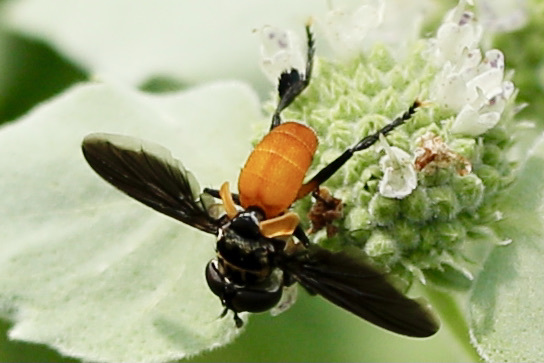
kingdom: Animalia
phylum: Arthropoda
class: Insecta
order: Diptera
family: Tachinidae
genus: Trichopoda
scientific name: Trichopoda pennipes
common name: Tachinid fly
